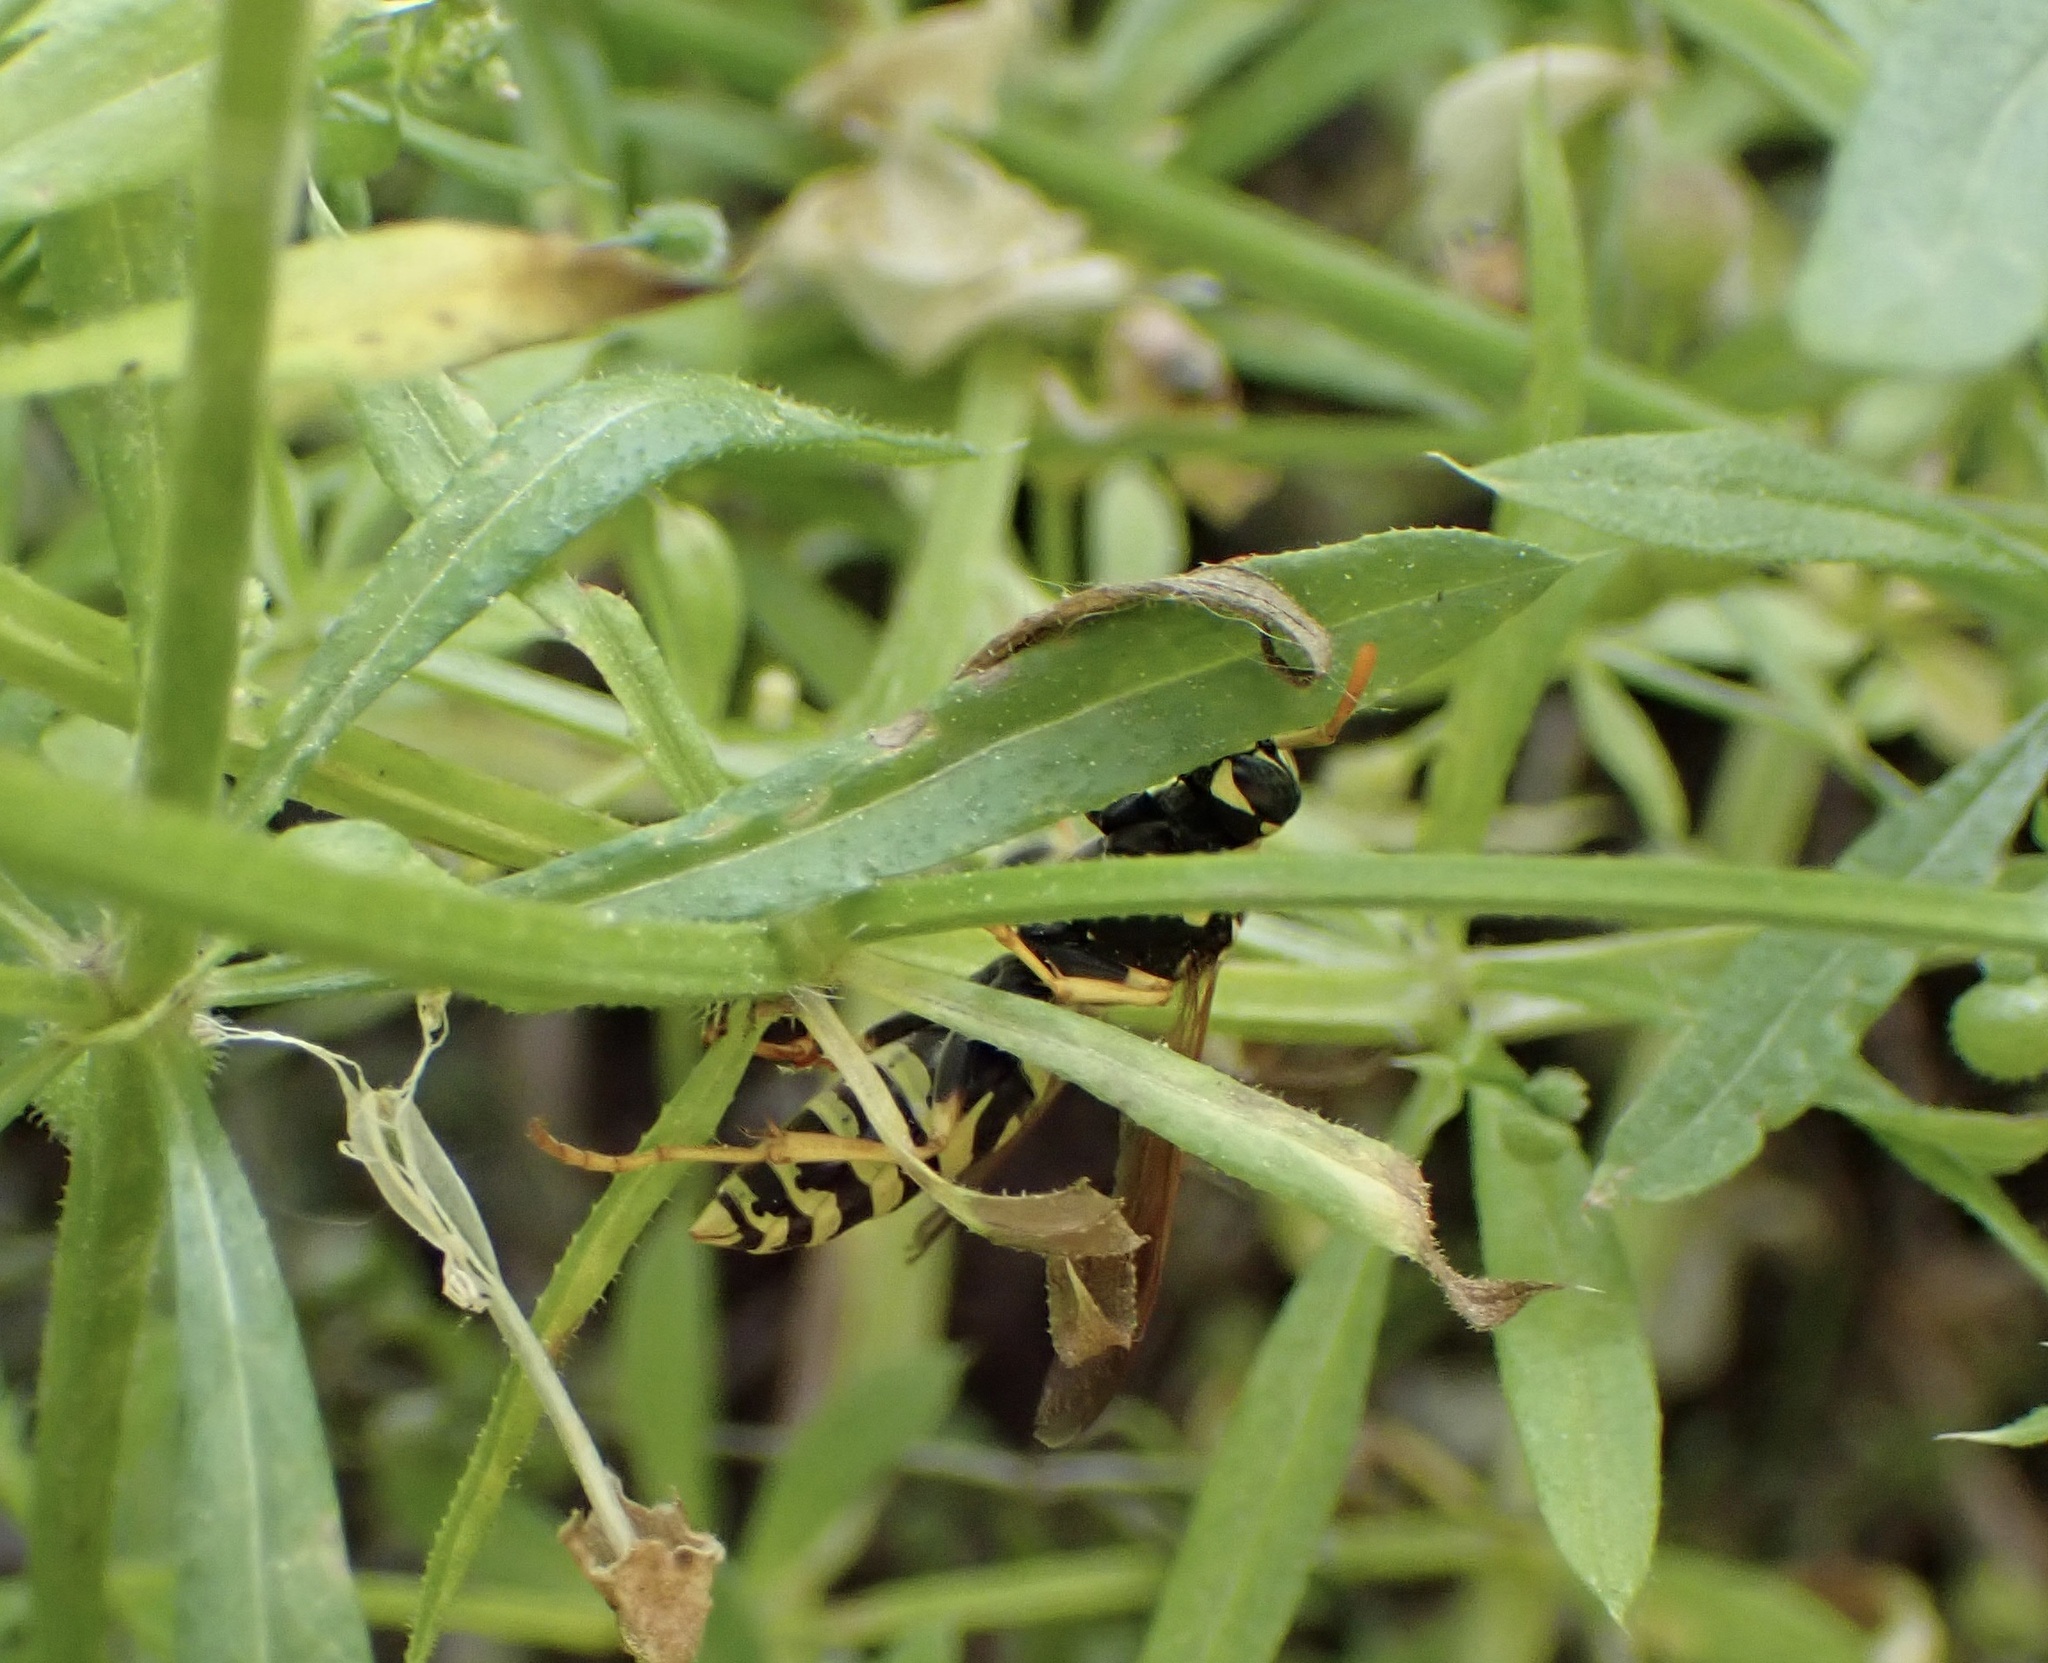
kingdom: Animalia
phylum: Arthropoda
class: Insecta
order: Hymenoptera
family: Eumenidae
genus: Polistes
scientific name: Polistes dominula
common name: Paper wasp
